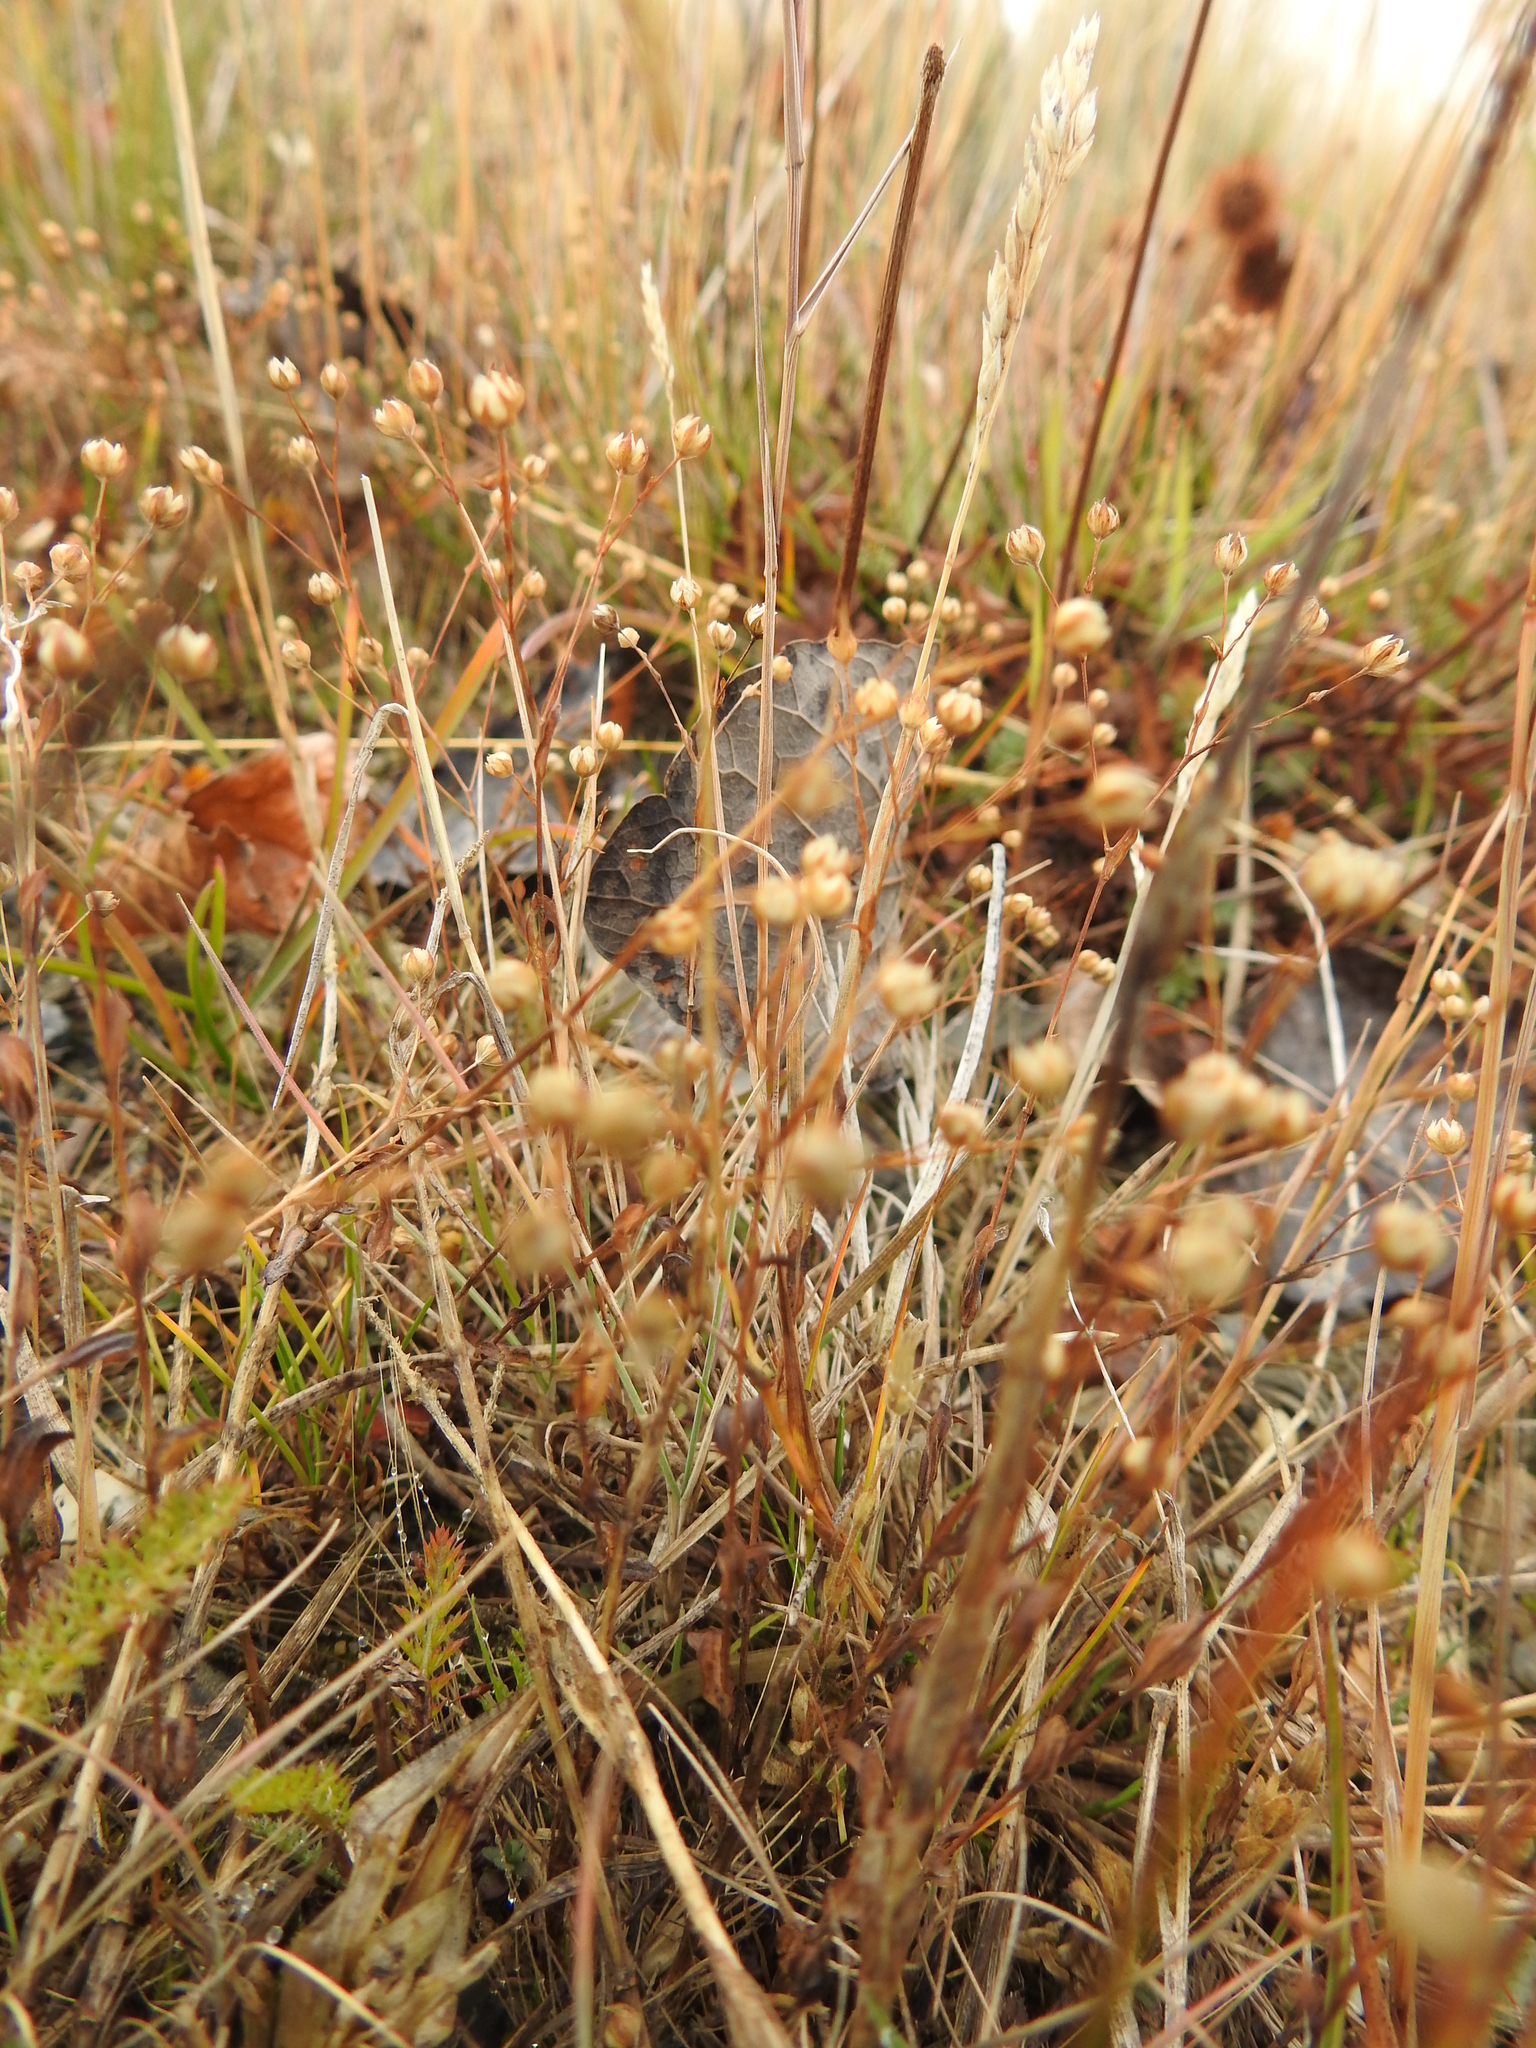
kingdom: Plantae
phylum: Tracheophyta
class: Magnoliopsida
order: Malpighiales
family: Linaceae
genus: Linum
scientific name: Linum catharticum
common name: Fairy flax
